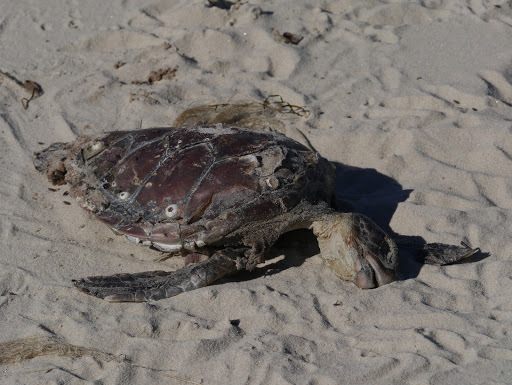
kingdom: Animalia
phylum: Chordata
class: Testudines
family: Cheloniidae
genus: Chelonia
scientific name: Chelonia mydas
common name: Green turtle
